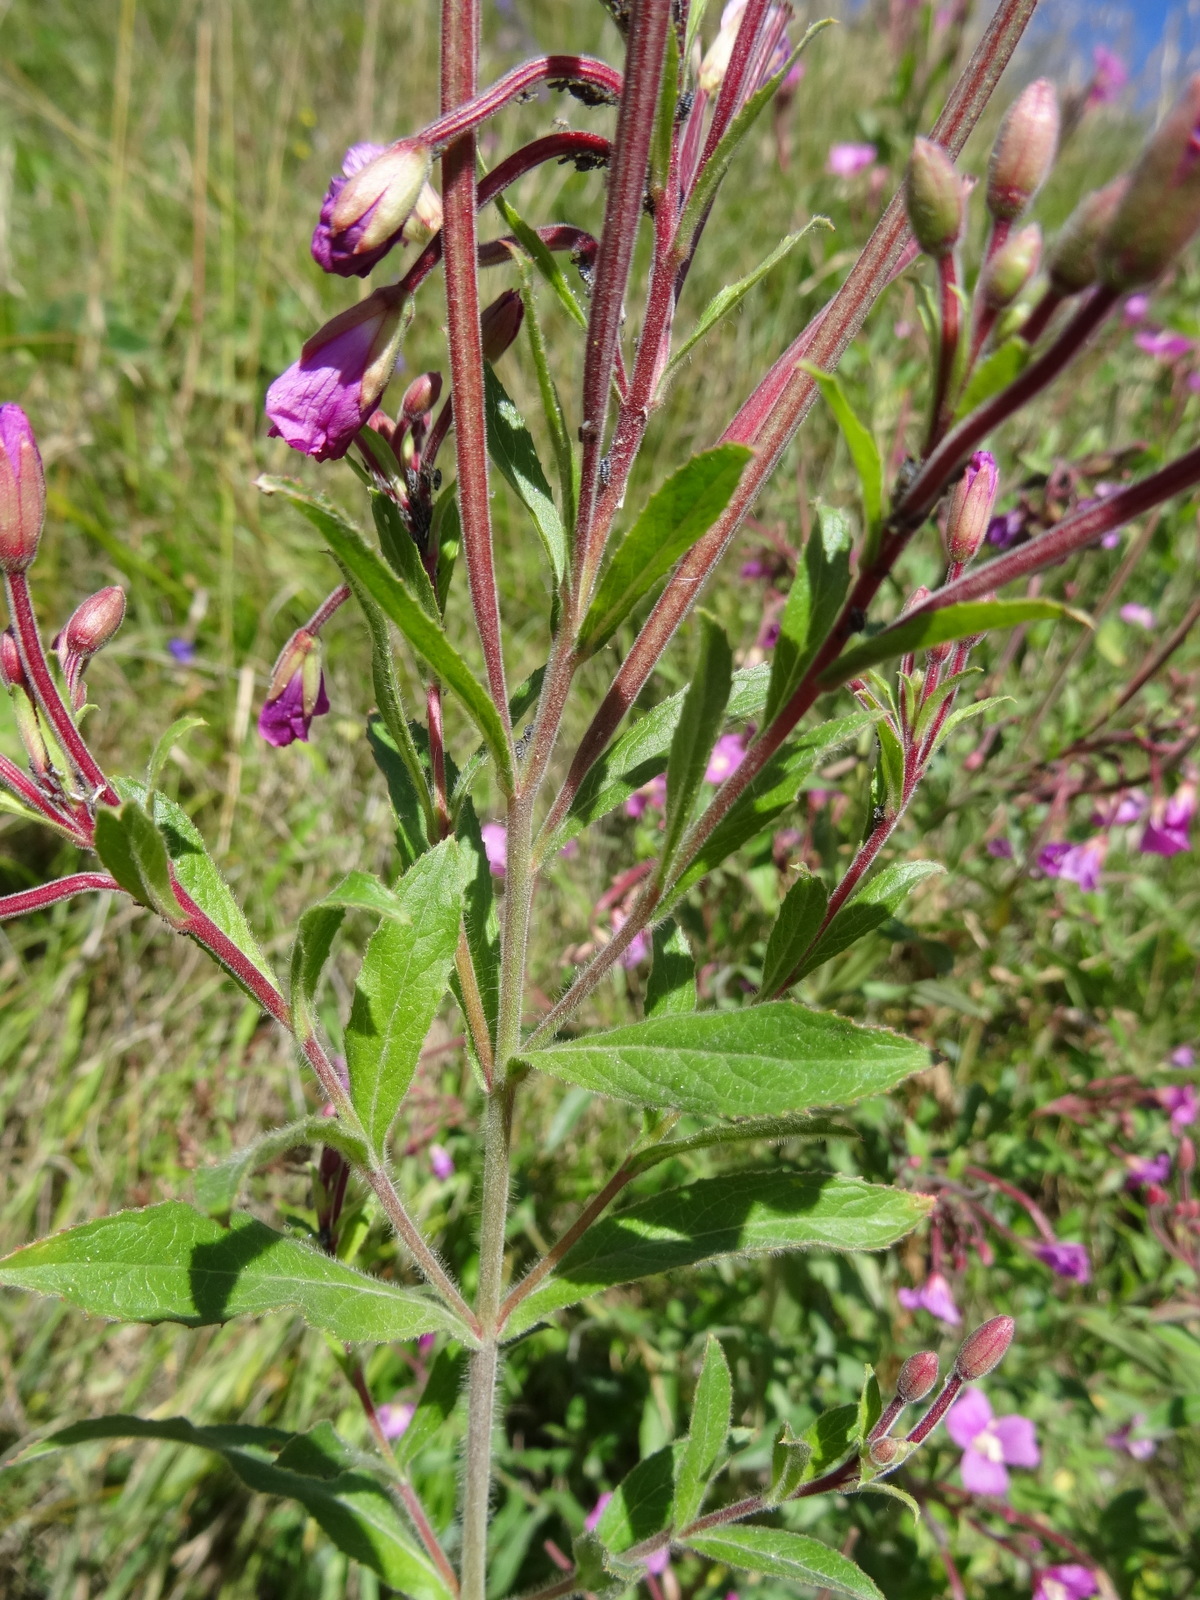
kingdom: Plantae
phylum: Tracheophyta
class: Magnoliopsida
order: Myrtales
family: Onagraceae
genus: Epilobium
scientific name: Epilobium hirsutum
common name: Great willowherb
